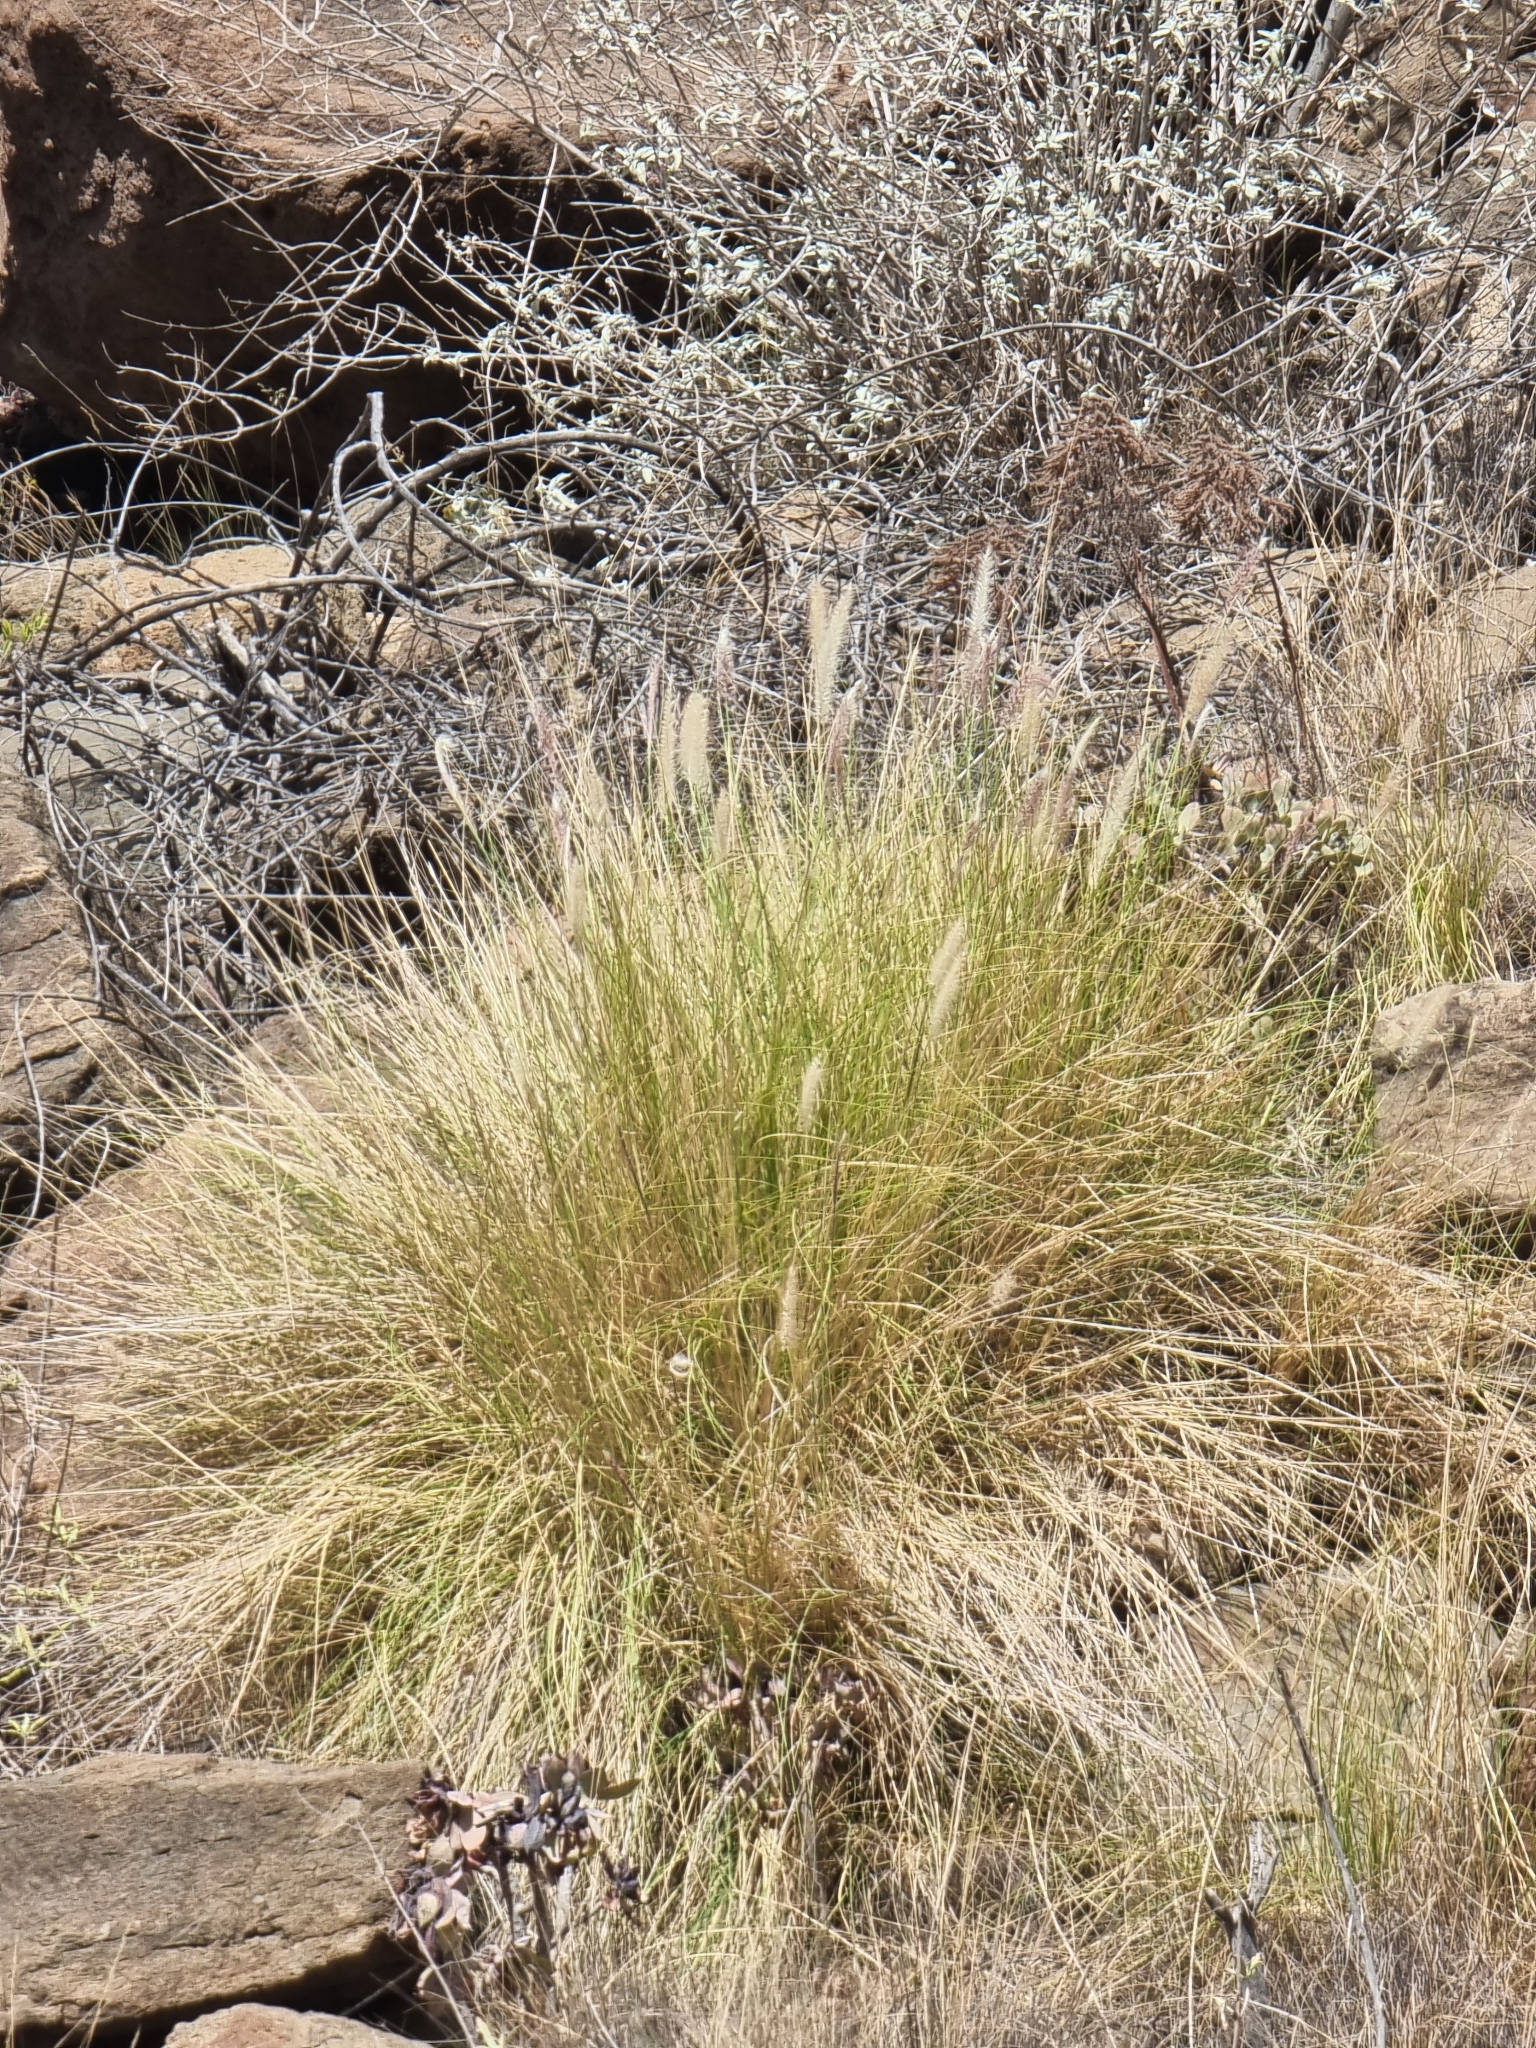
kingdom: Plantae
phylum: Tracheophyta
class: Liliopsida
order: Poales
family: Poaceae
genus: Cenchrus
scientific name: Cenchrus setaceus
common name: Crimson fountaingrass
